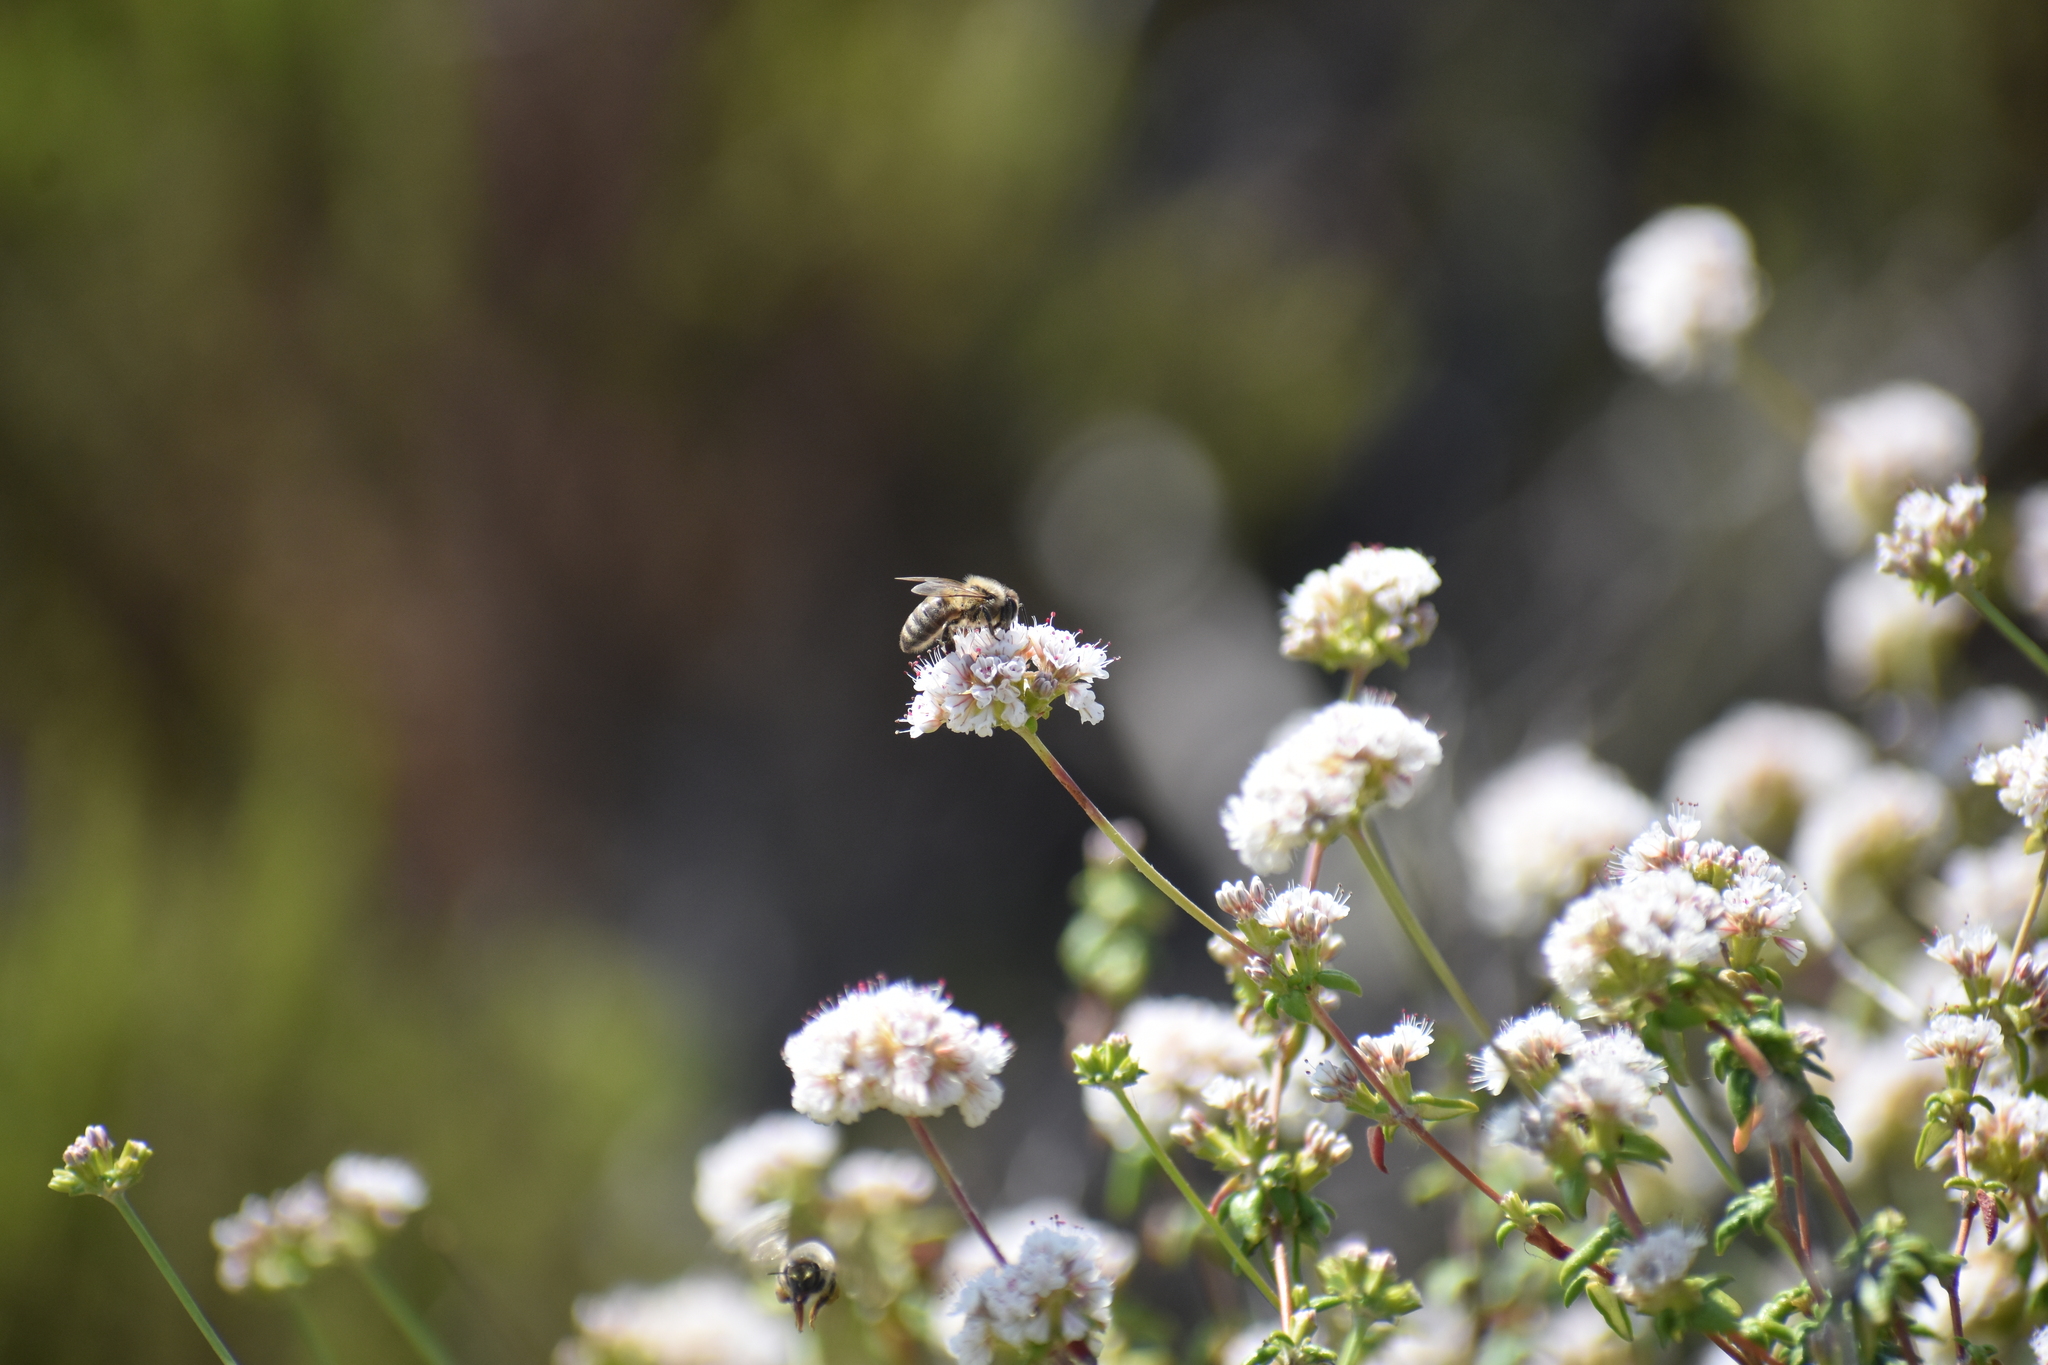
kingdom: Animalia
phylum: Arthropoda
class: Insecta
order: Hymenoptera
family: Apidae
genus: Apis
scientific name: Apis mellifera
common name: Honey bee
